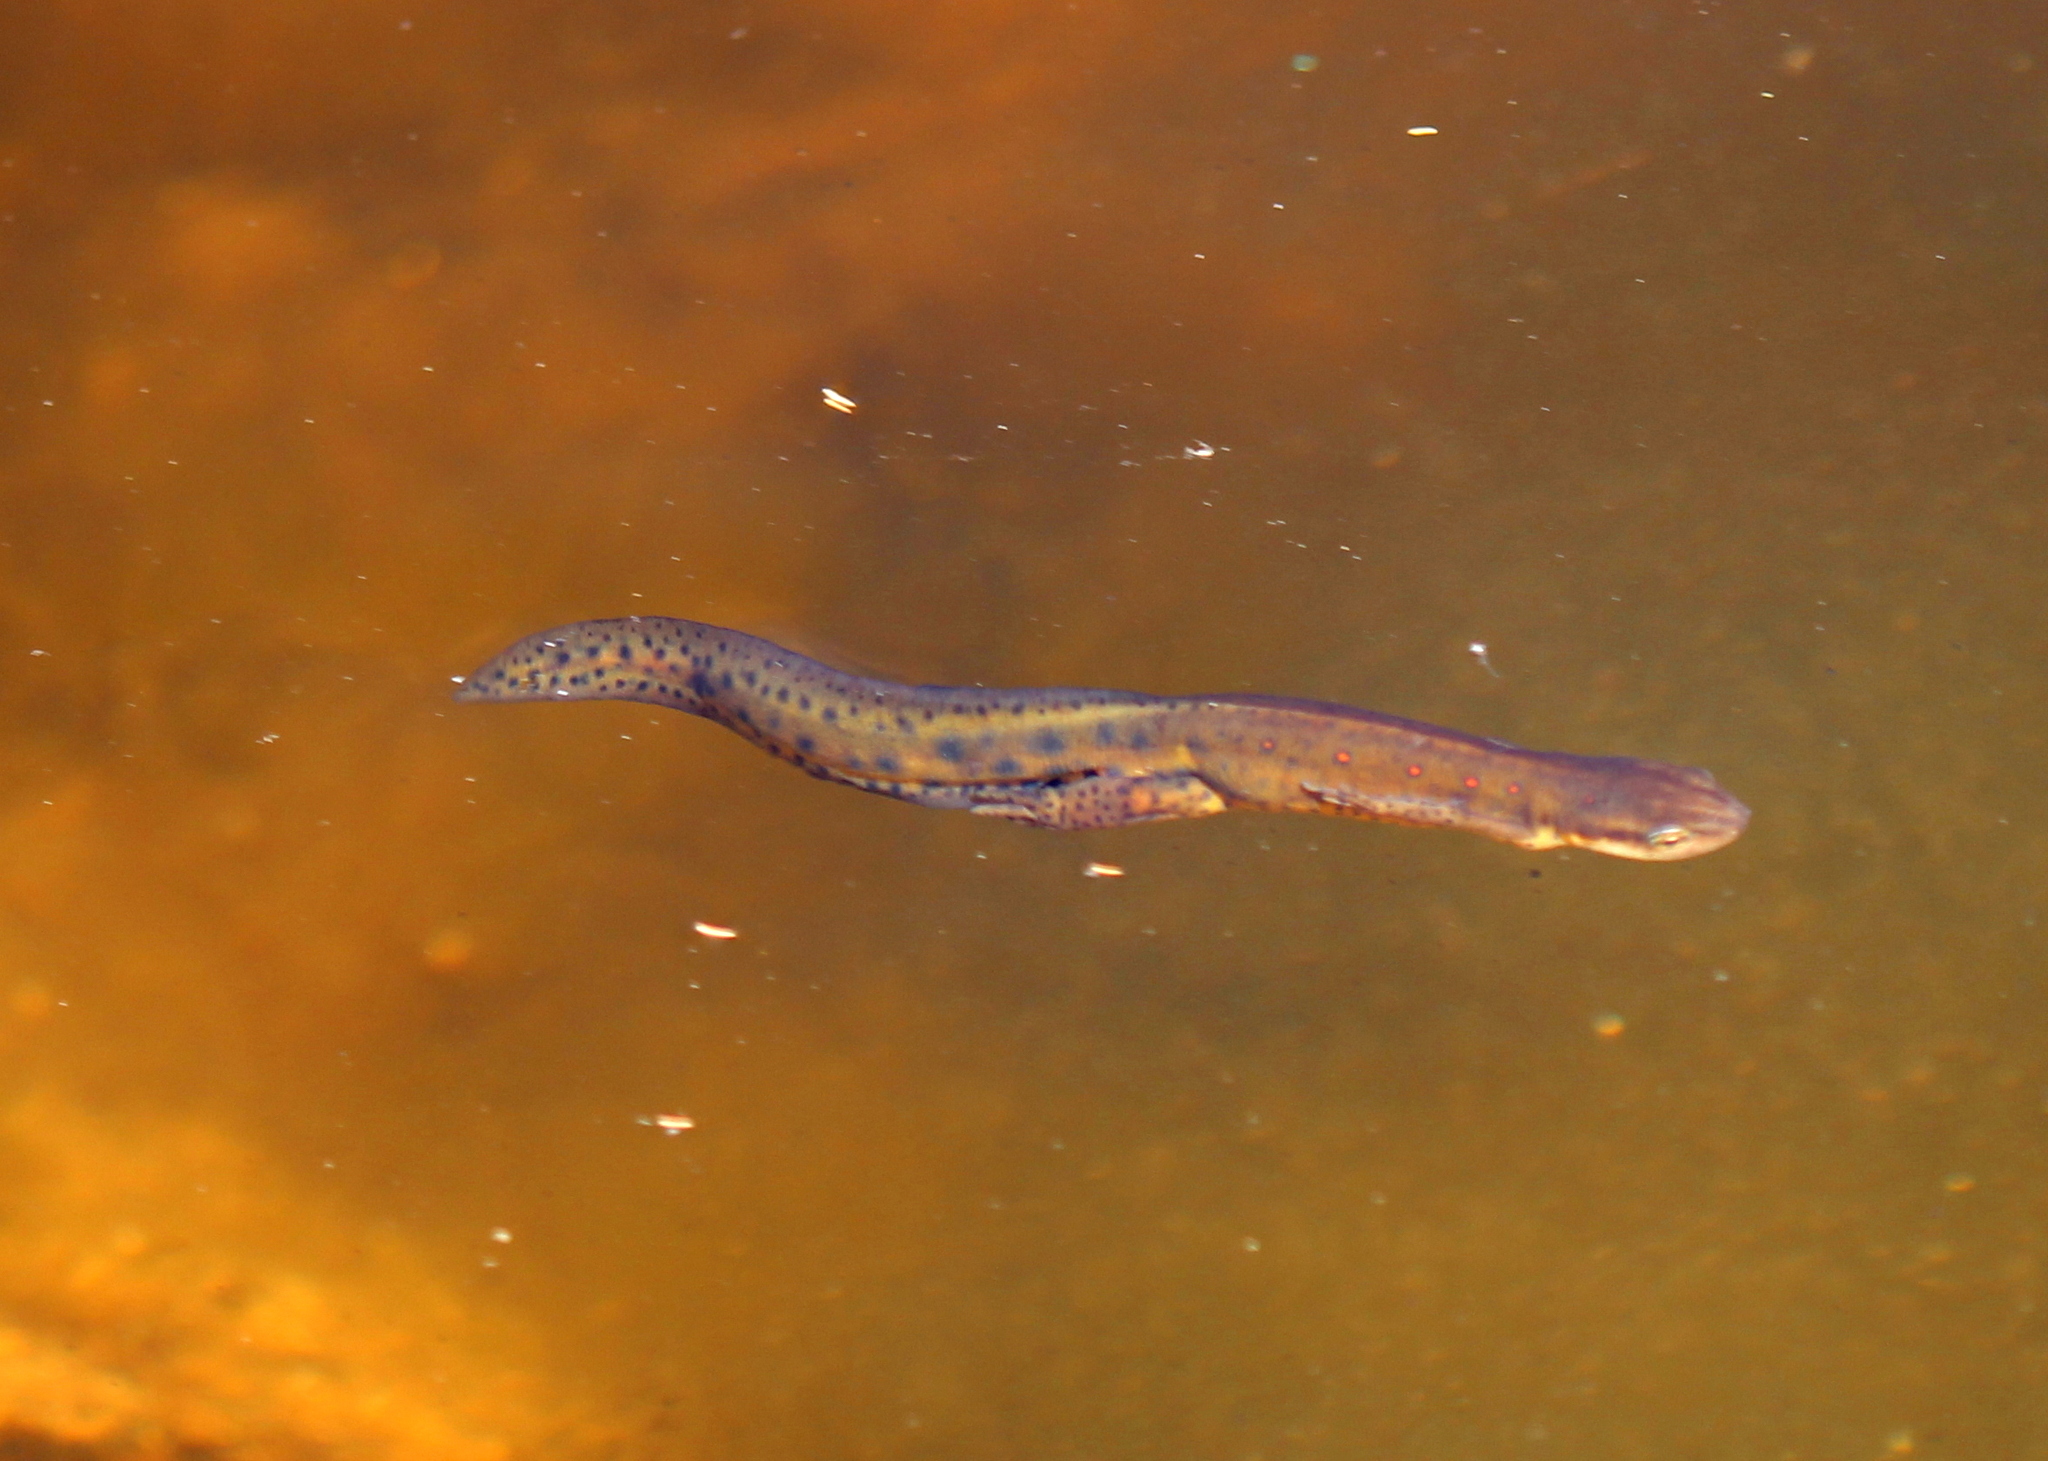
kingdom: Animalia
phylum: Chordata
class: Amphibia
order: Caudata
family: Salamandridae
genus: Notophthalmus
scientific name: Notophthalmus viridescens
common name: Eastern newt
